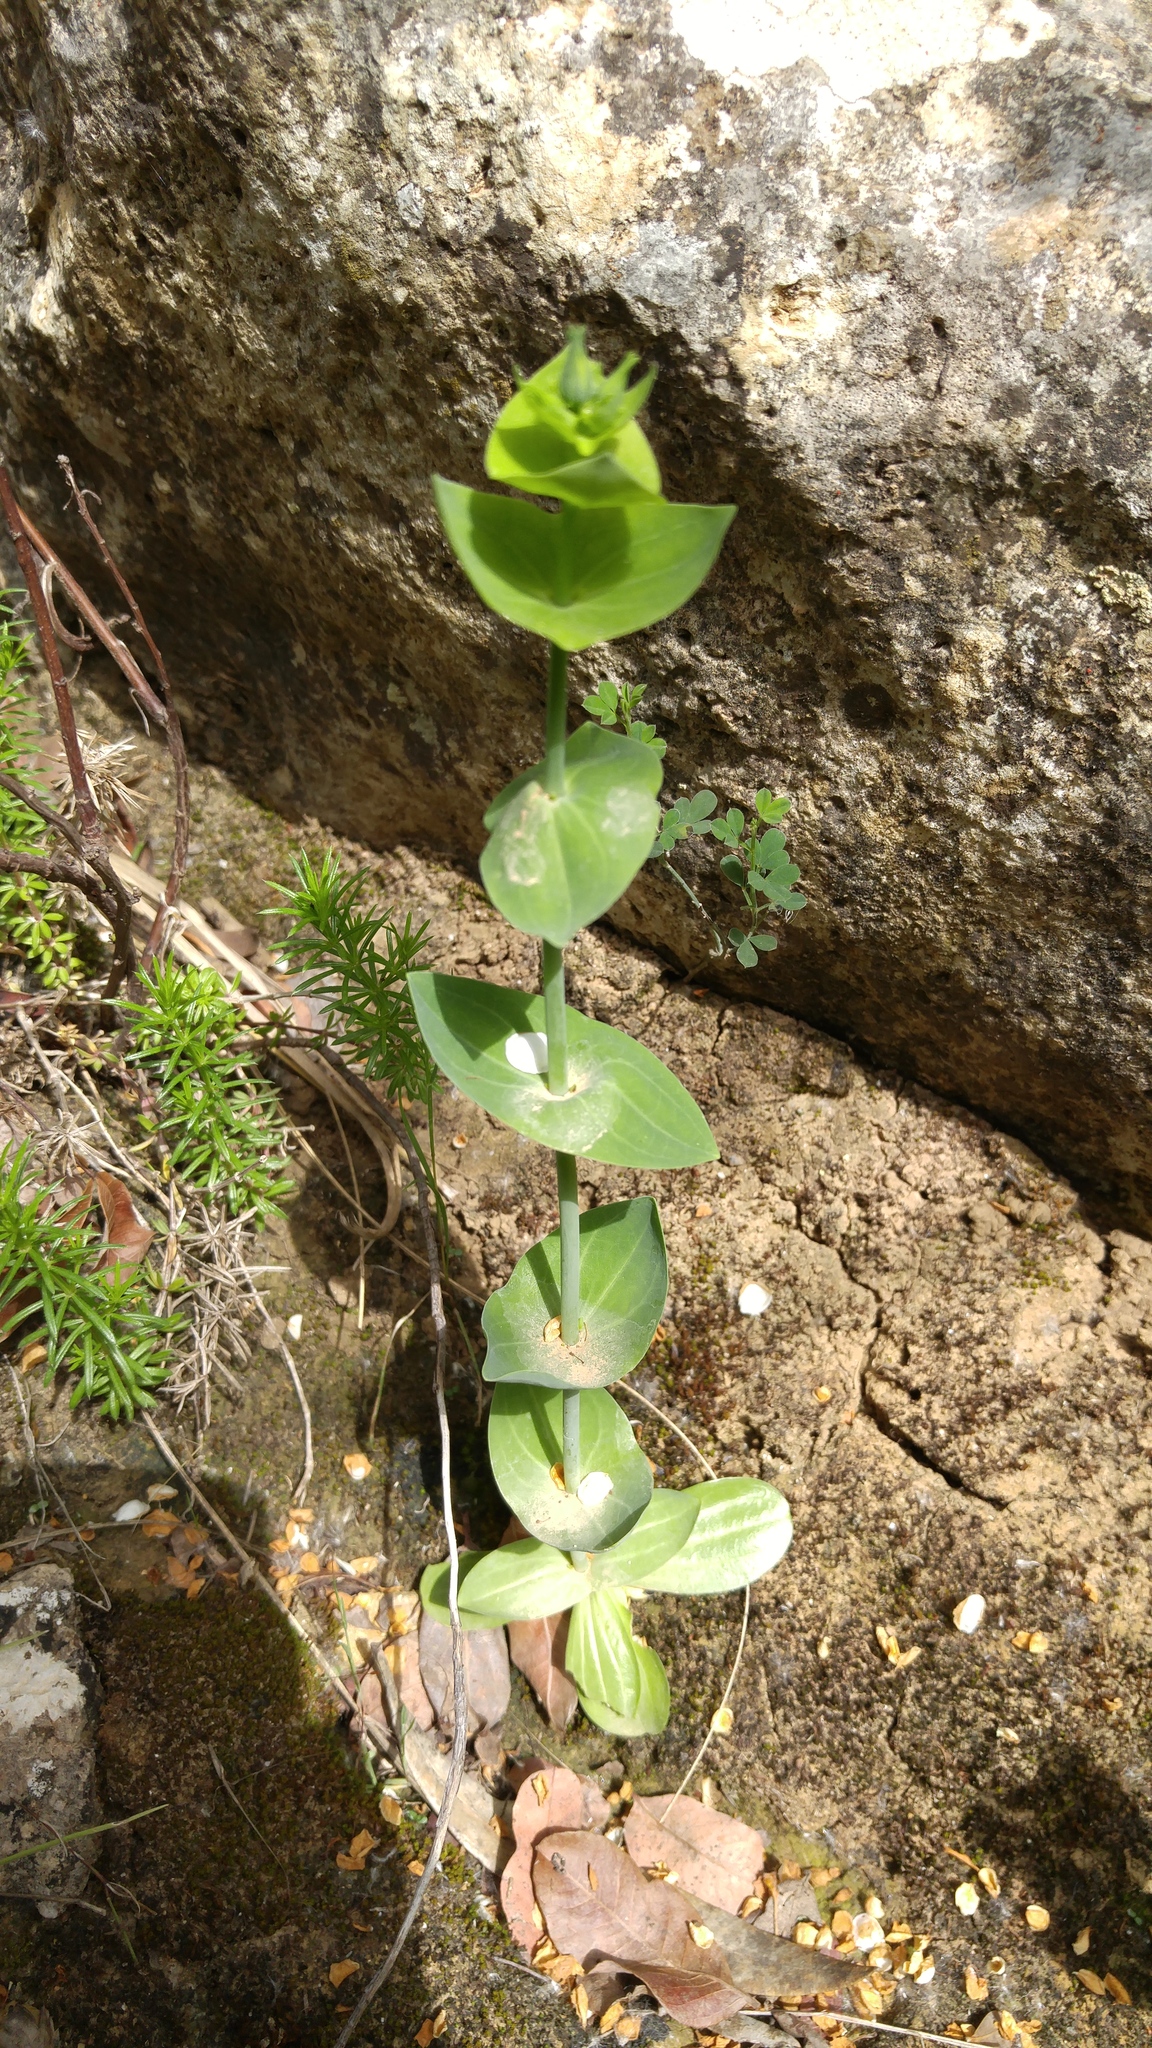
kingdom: Plantae
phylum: Tracheophyta
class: Magnoliopsida
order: Gentianales
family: Gentianaceae
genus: Blackstonia
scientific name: Blackstonia grandiflora
